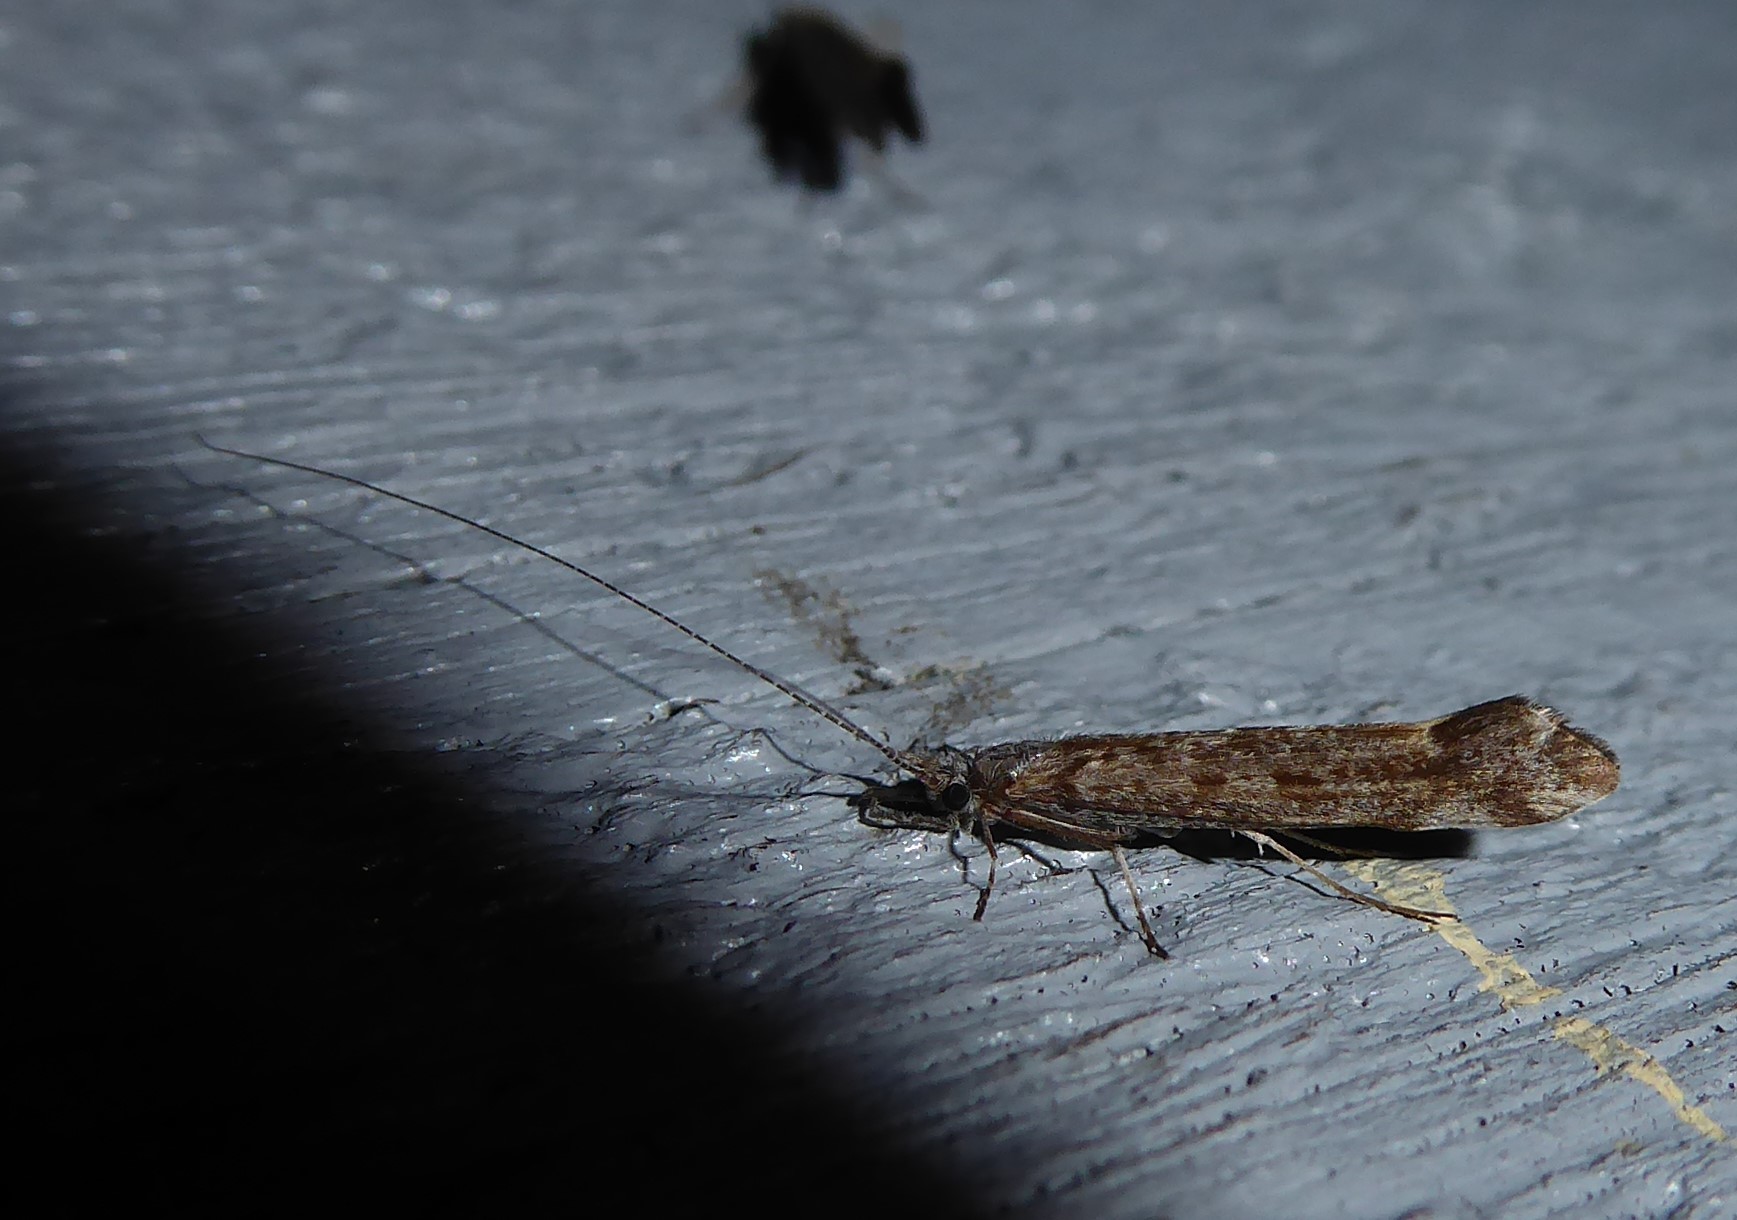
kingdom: Animalia
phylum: Arthropoda
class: Insecta
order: Trichoptera
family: Leptoceridae
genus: Hudsonema
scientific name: Hudsonema amabile
